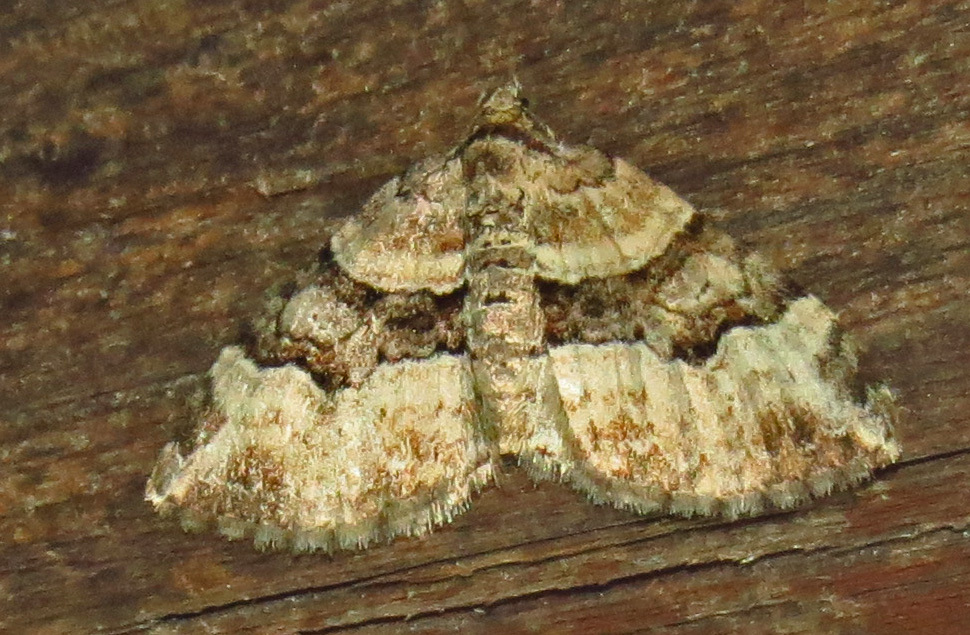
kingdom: Animalia
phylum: Arthropoda
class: Insecta
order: Lepidoptera
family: Geometridae
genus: Xanthorhoe
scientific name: Xanthorhoe lacustrata
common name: Toothed brown carpet
